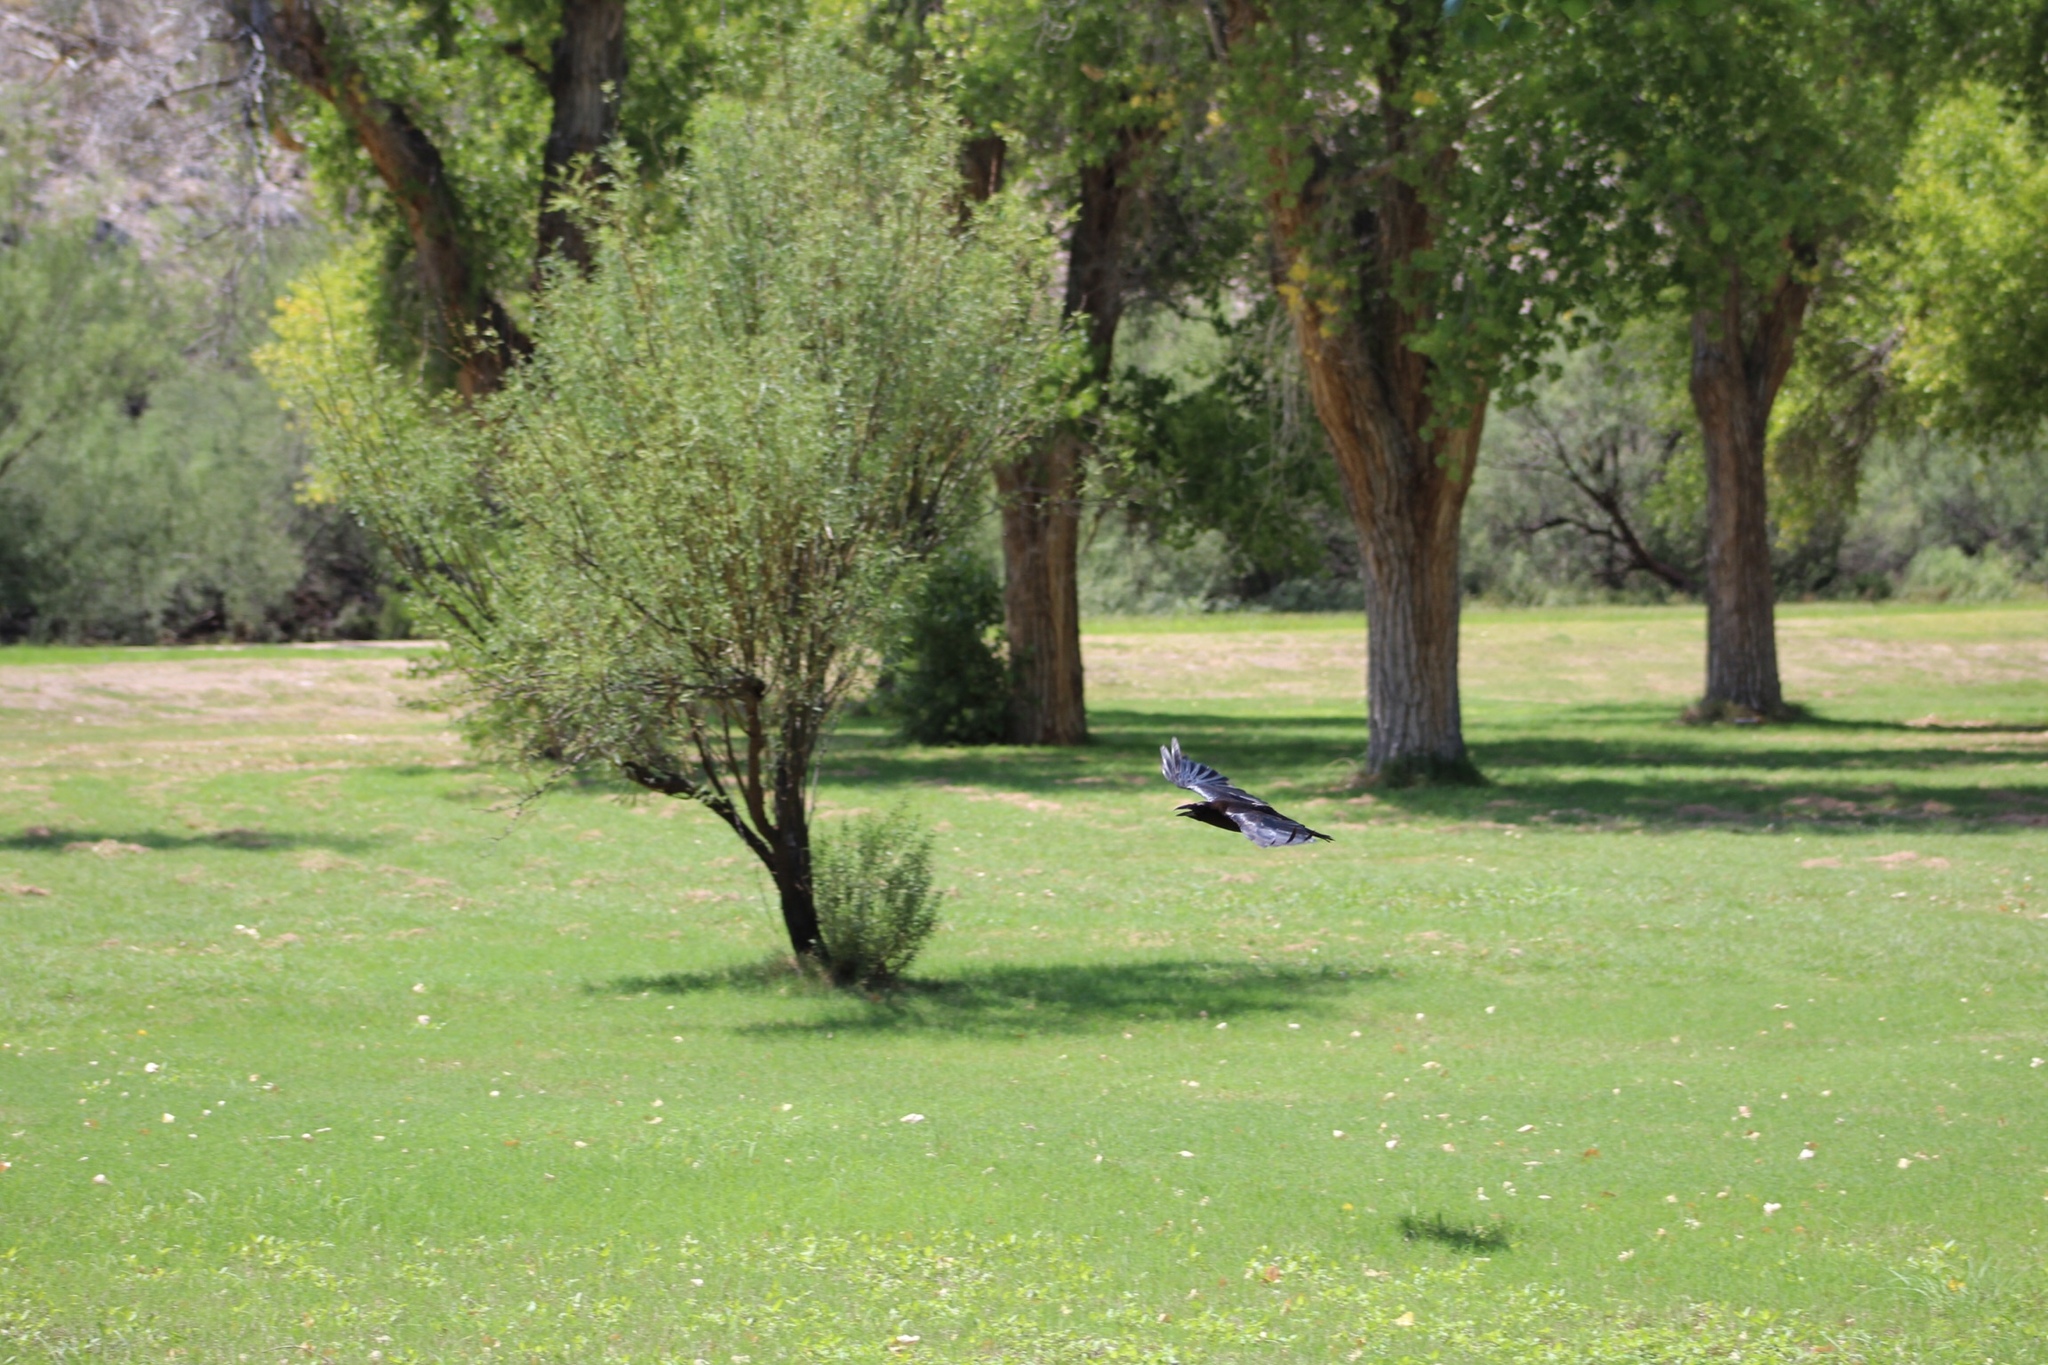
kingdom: Animalia
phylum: Chordata
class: Aves
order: Passeriformes
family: Corvidae
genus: Corvus
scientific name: Corvus corax
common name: Common raven
